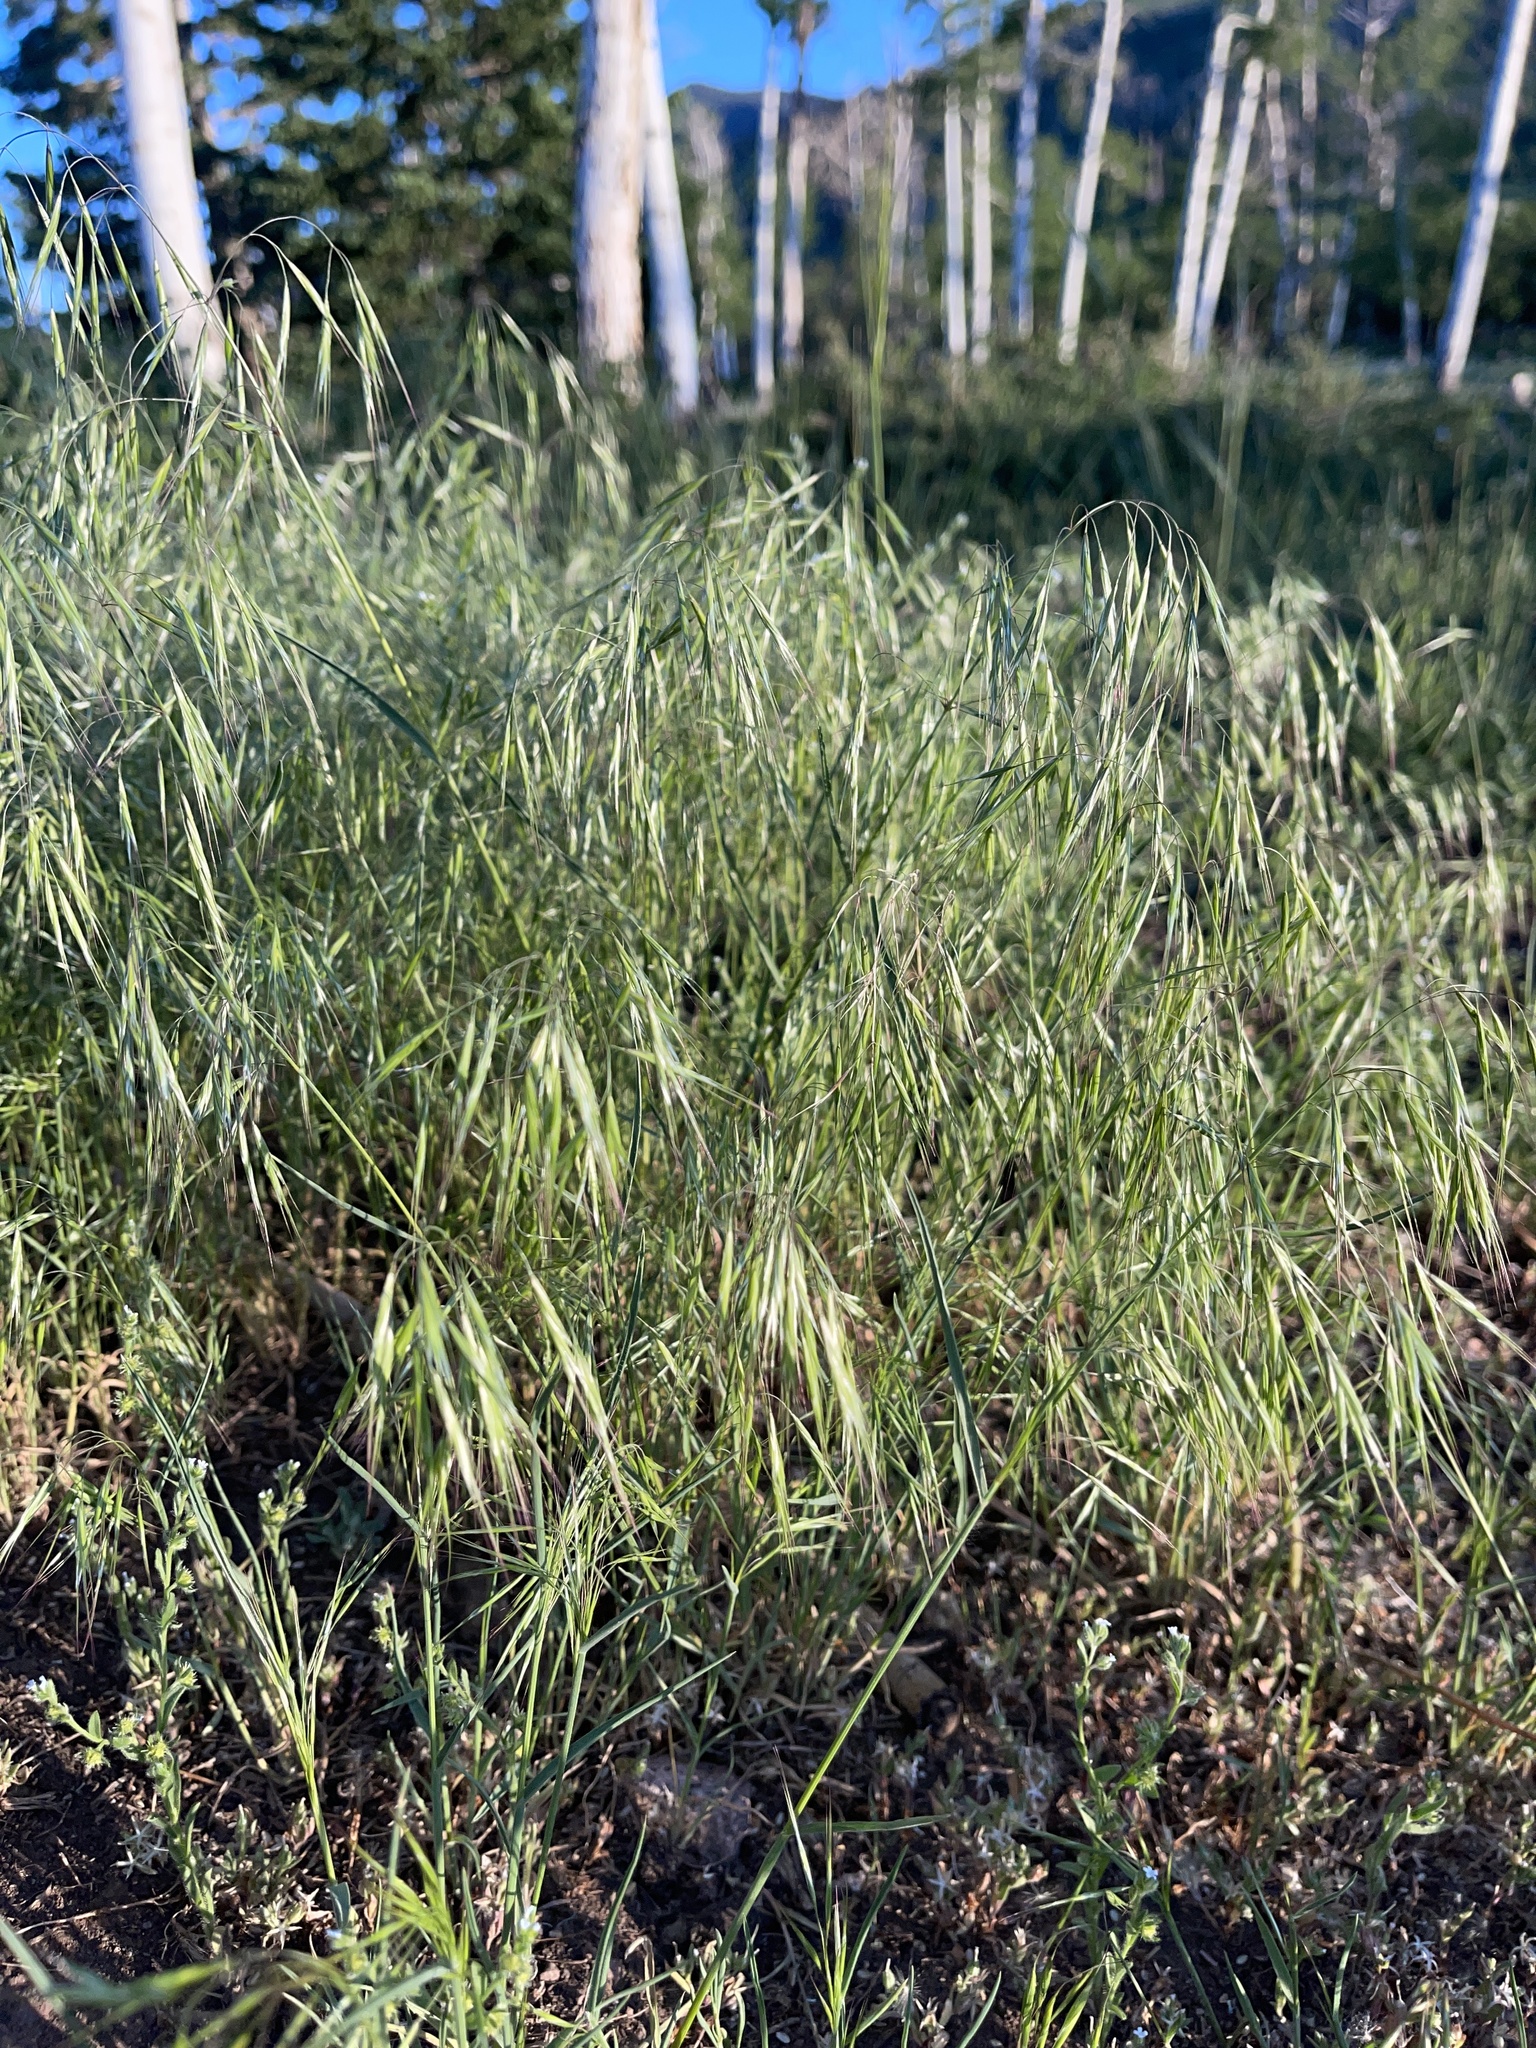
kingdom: Plantae
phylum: Tracheophyta
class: Liliopsida
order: Poales
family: Poaceae
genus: Bromus
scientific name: Bromus tectorum
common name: Cheatgrass
